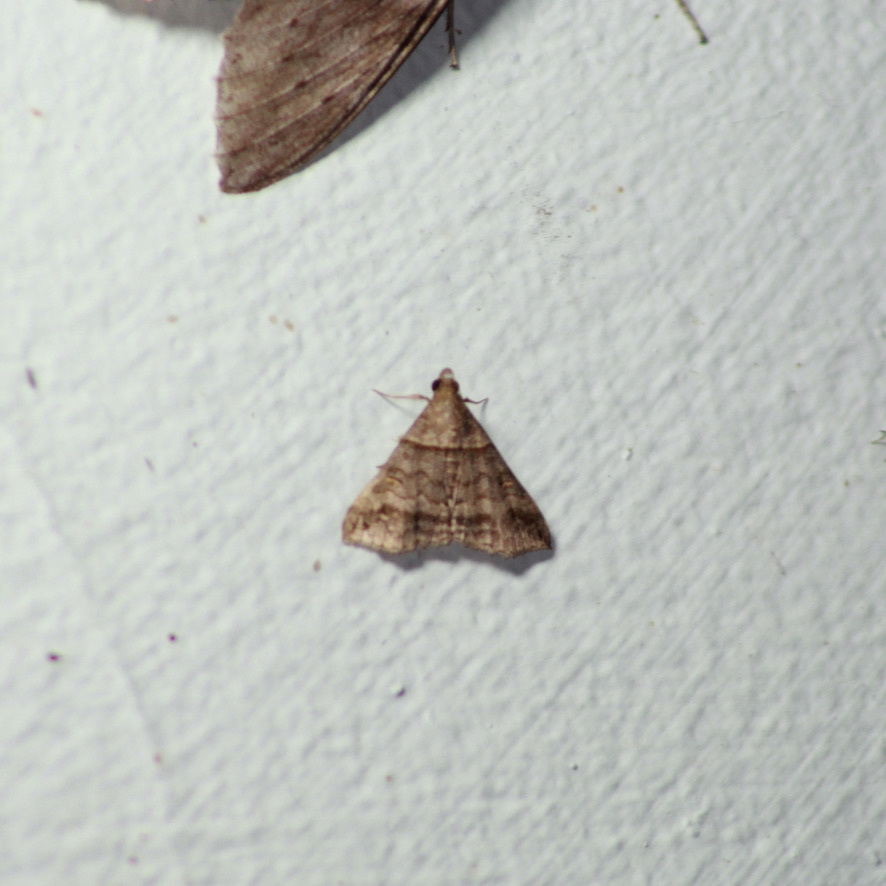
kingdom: Animalia
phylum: Arthropoda
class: Insecta
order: Lepidoptera
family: Erebidae
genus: Heterogramma
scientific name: Heterogramma circumflexalis
